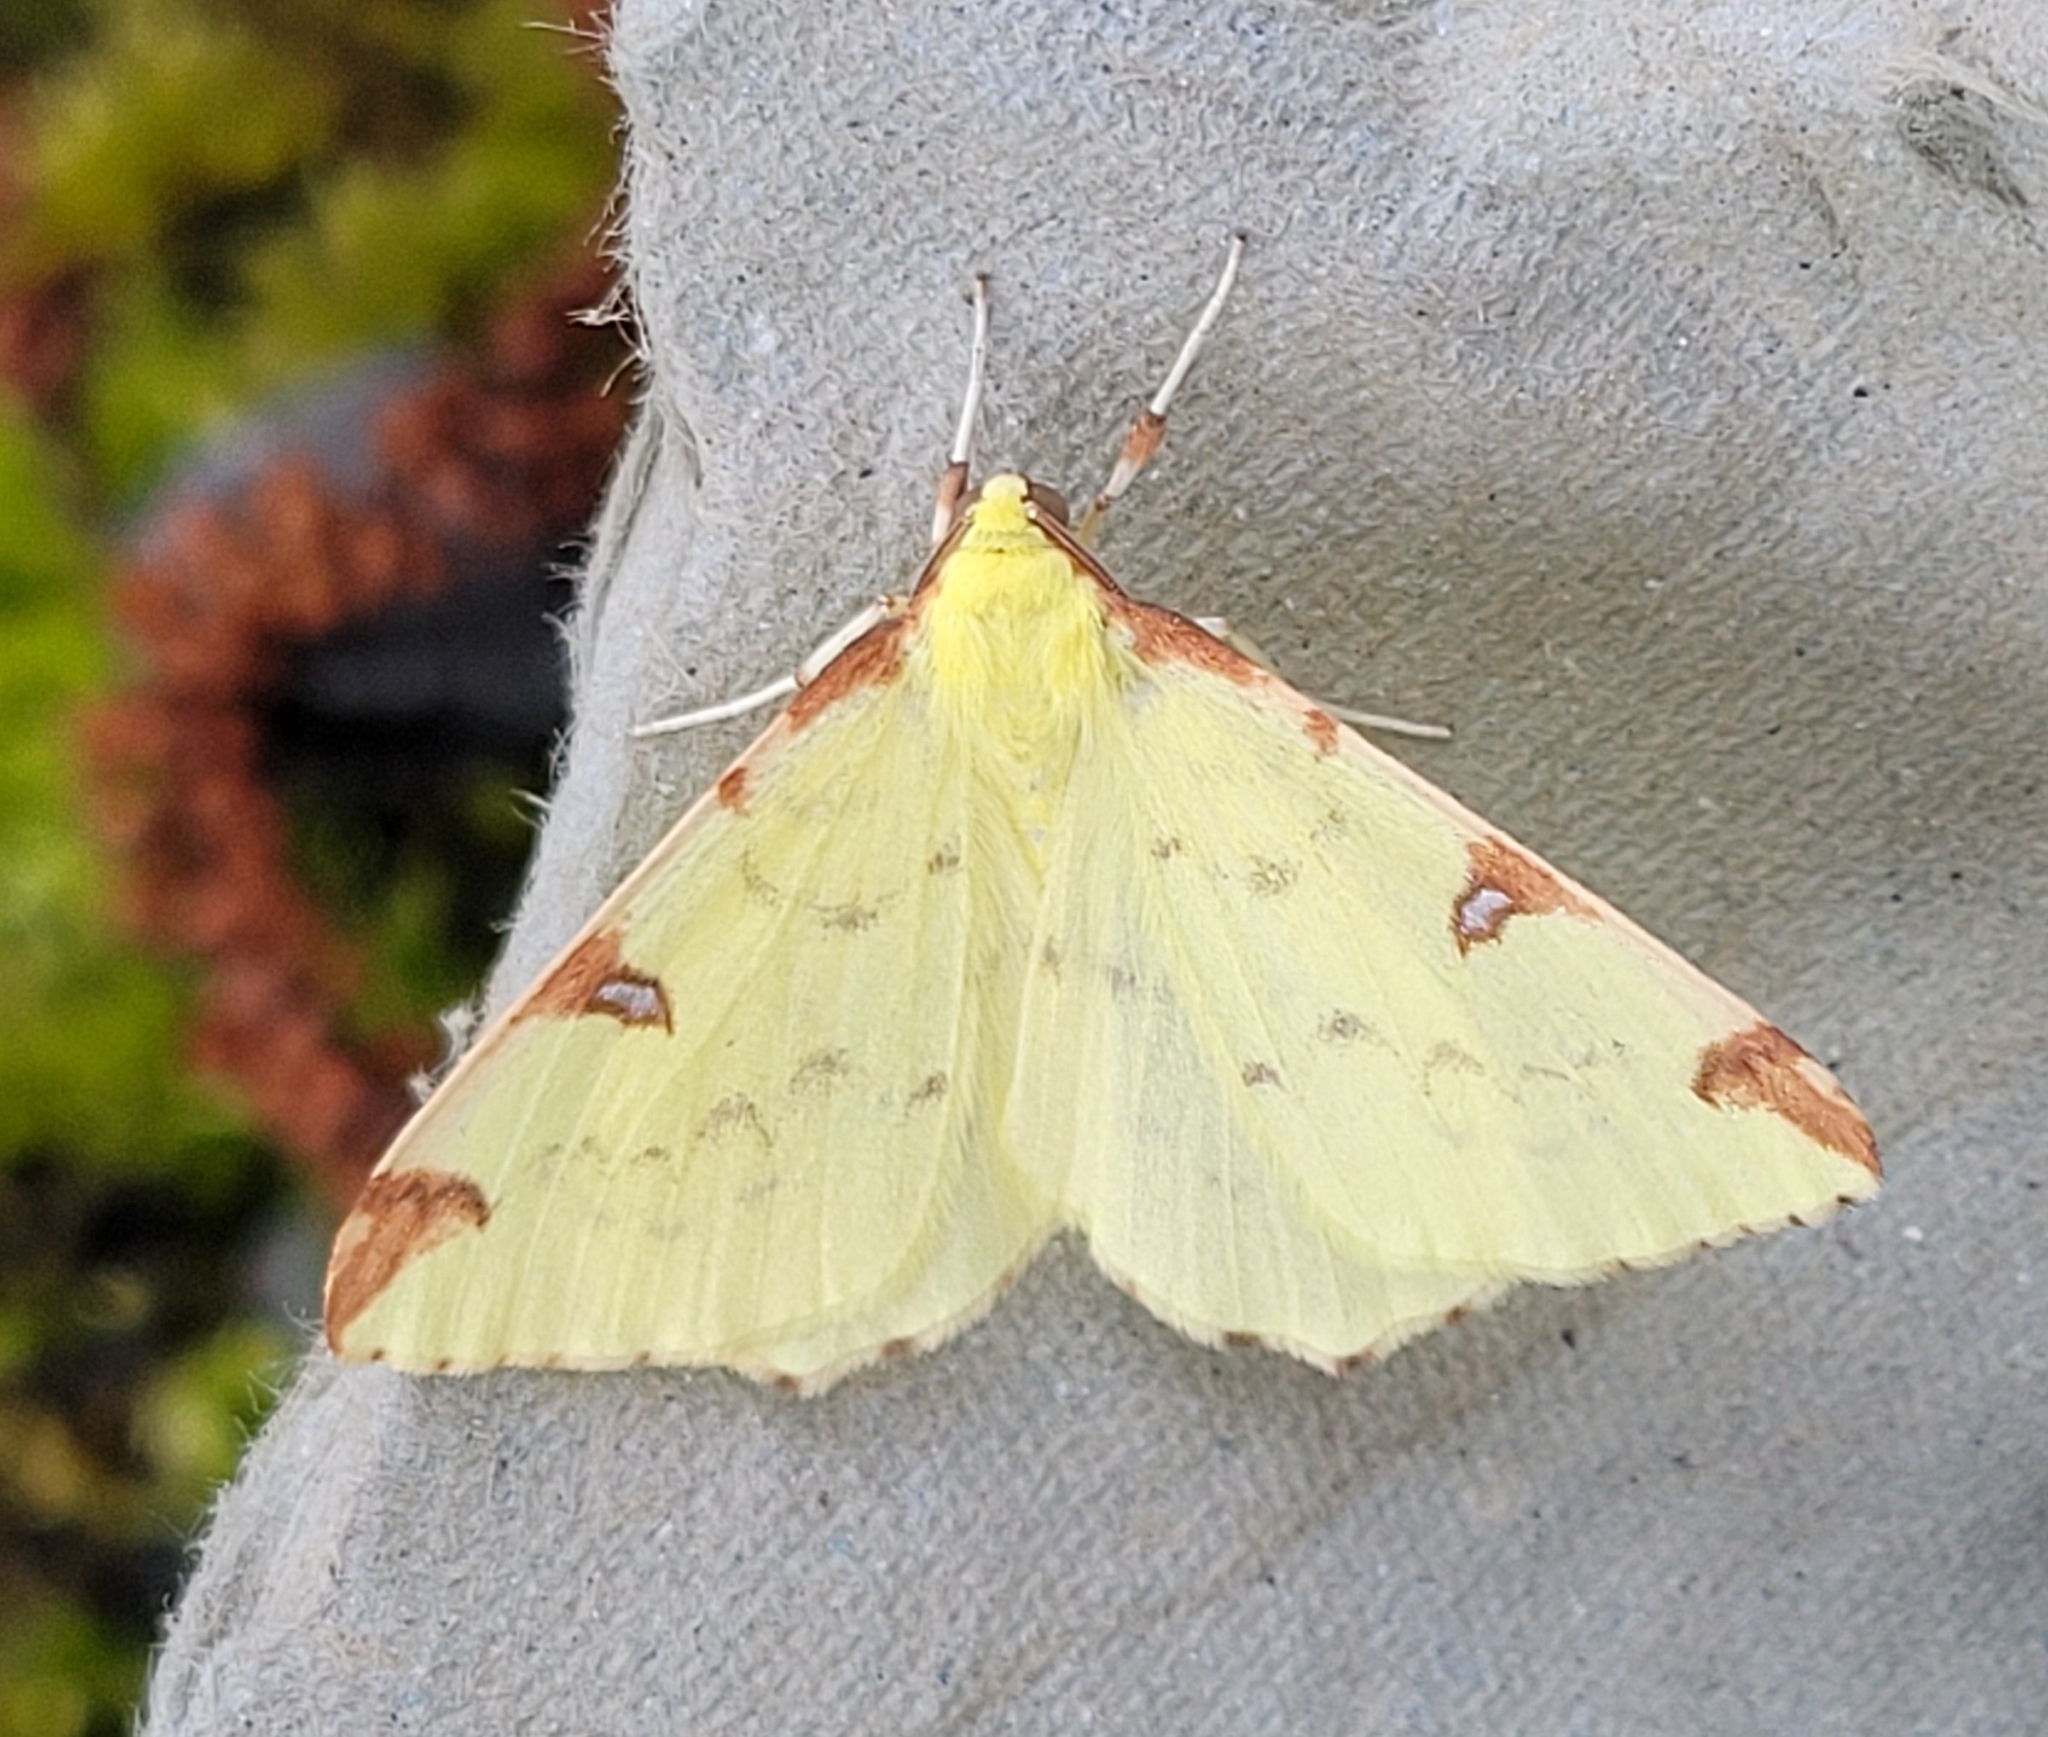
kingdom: Animalia
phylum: Arthropoda
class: Insecta
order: Lepidoptera
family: Geometridae
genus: Opisthograptis
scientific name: Opisthograptis luteolata
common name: Brimstone moth
